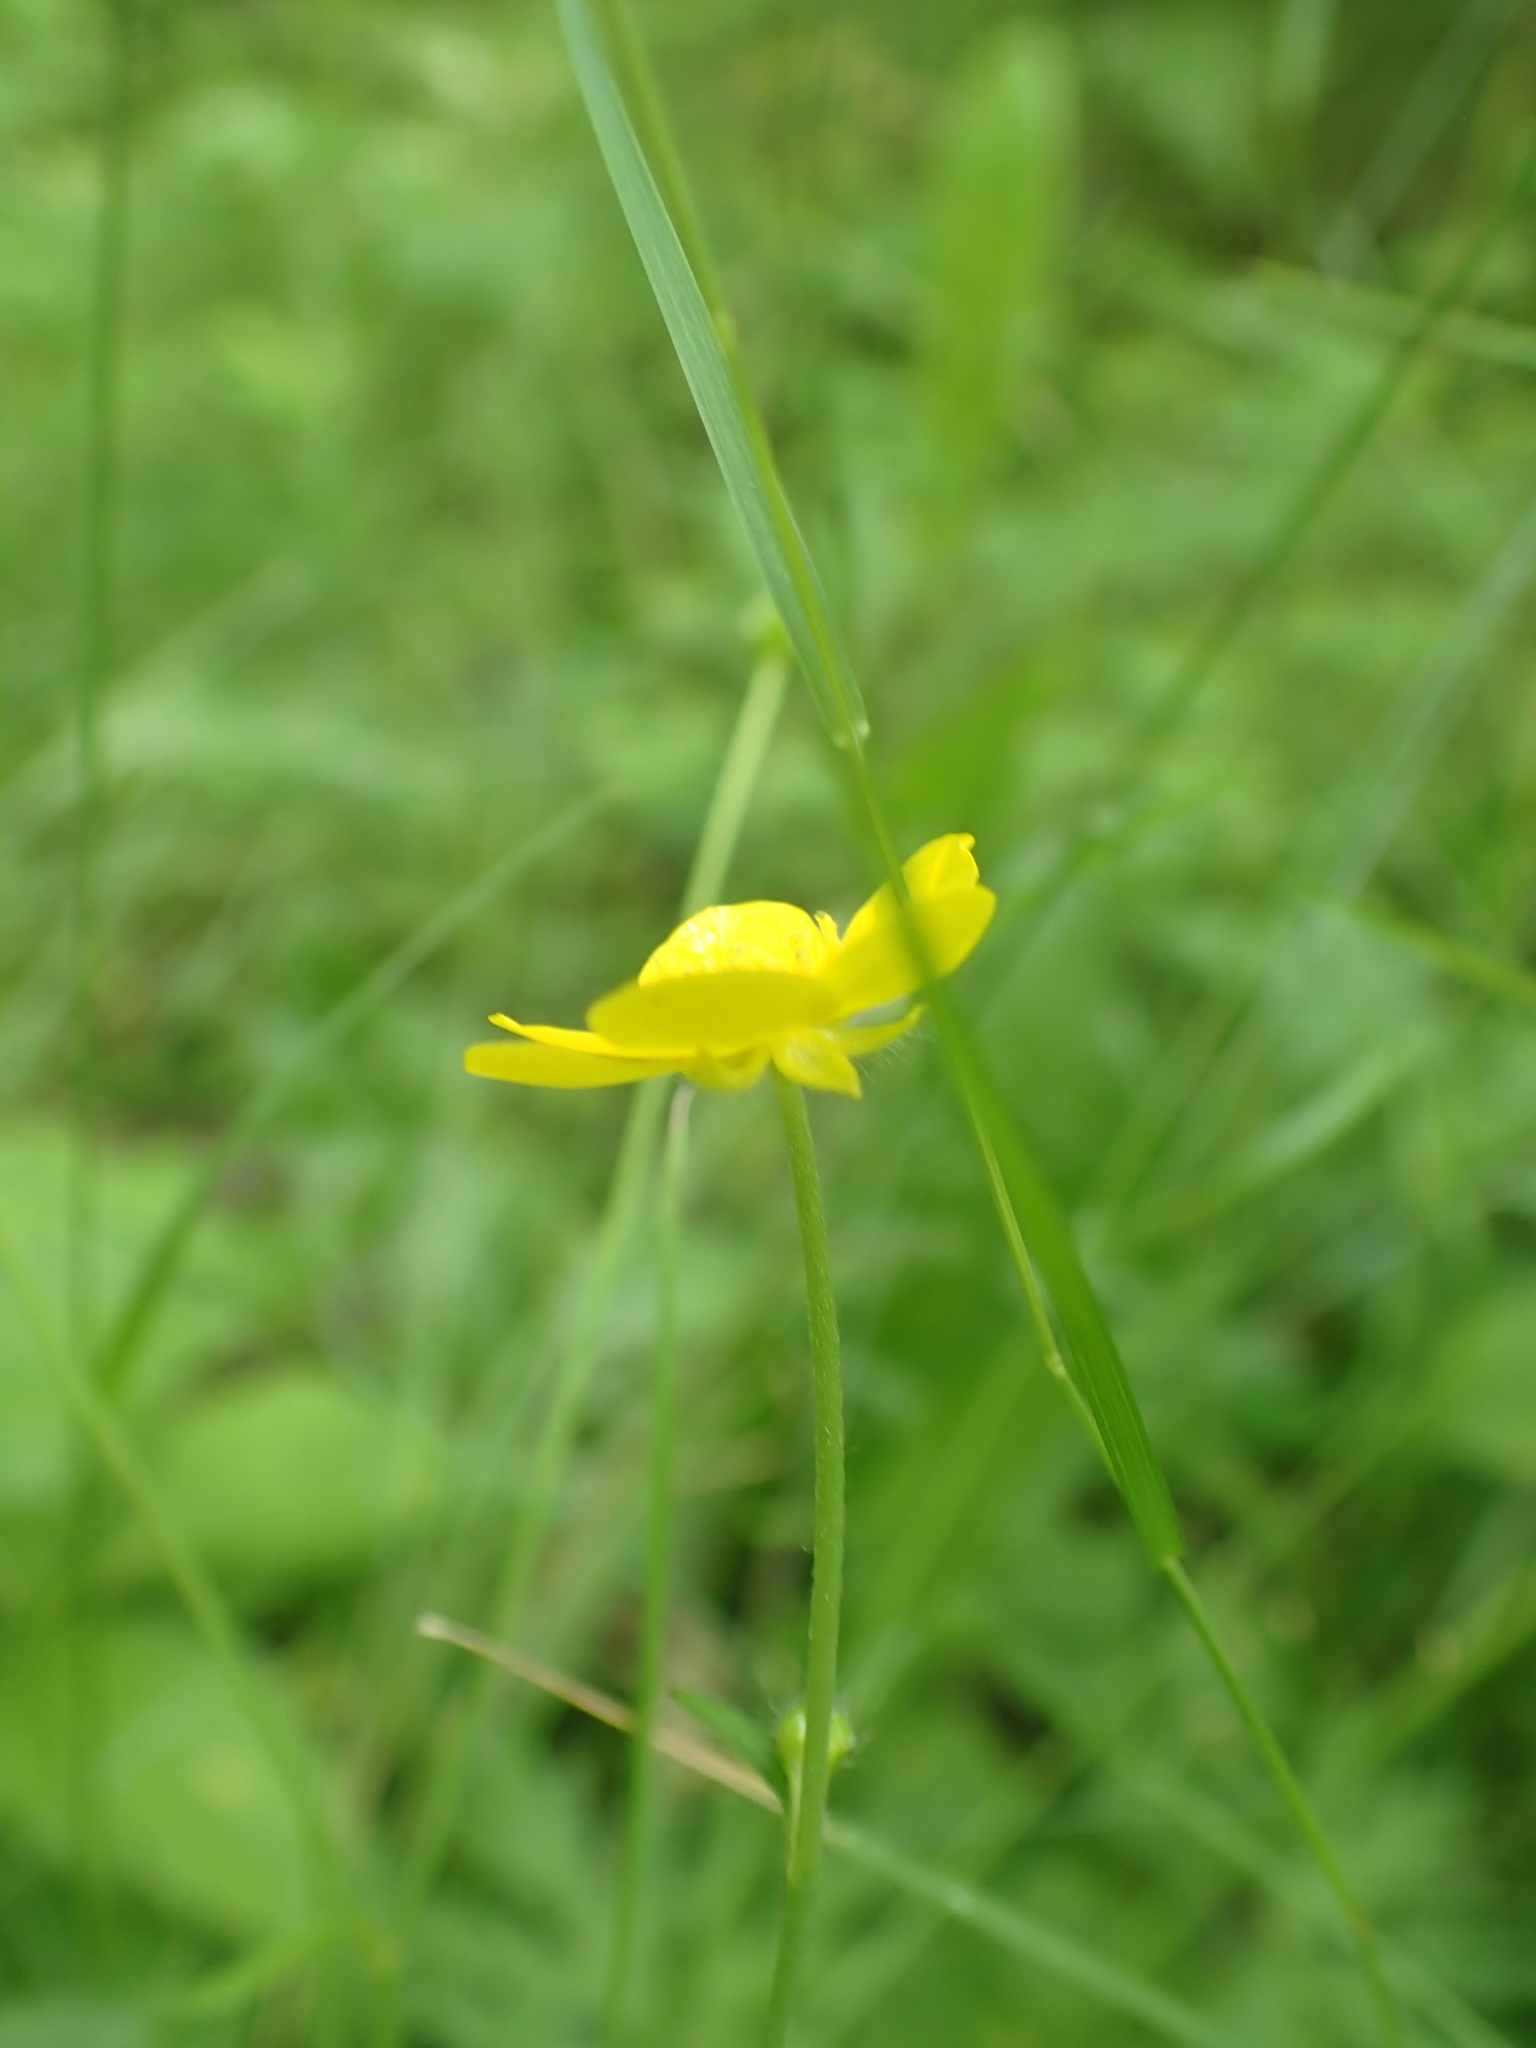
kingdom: Plantae
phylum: Tracheophyta
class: Magnoliopsida
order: Ranunculales
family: Ranunculaceae
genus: Ranunculus
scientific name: Ranunculus acris
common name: Meadow buttercup
